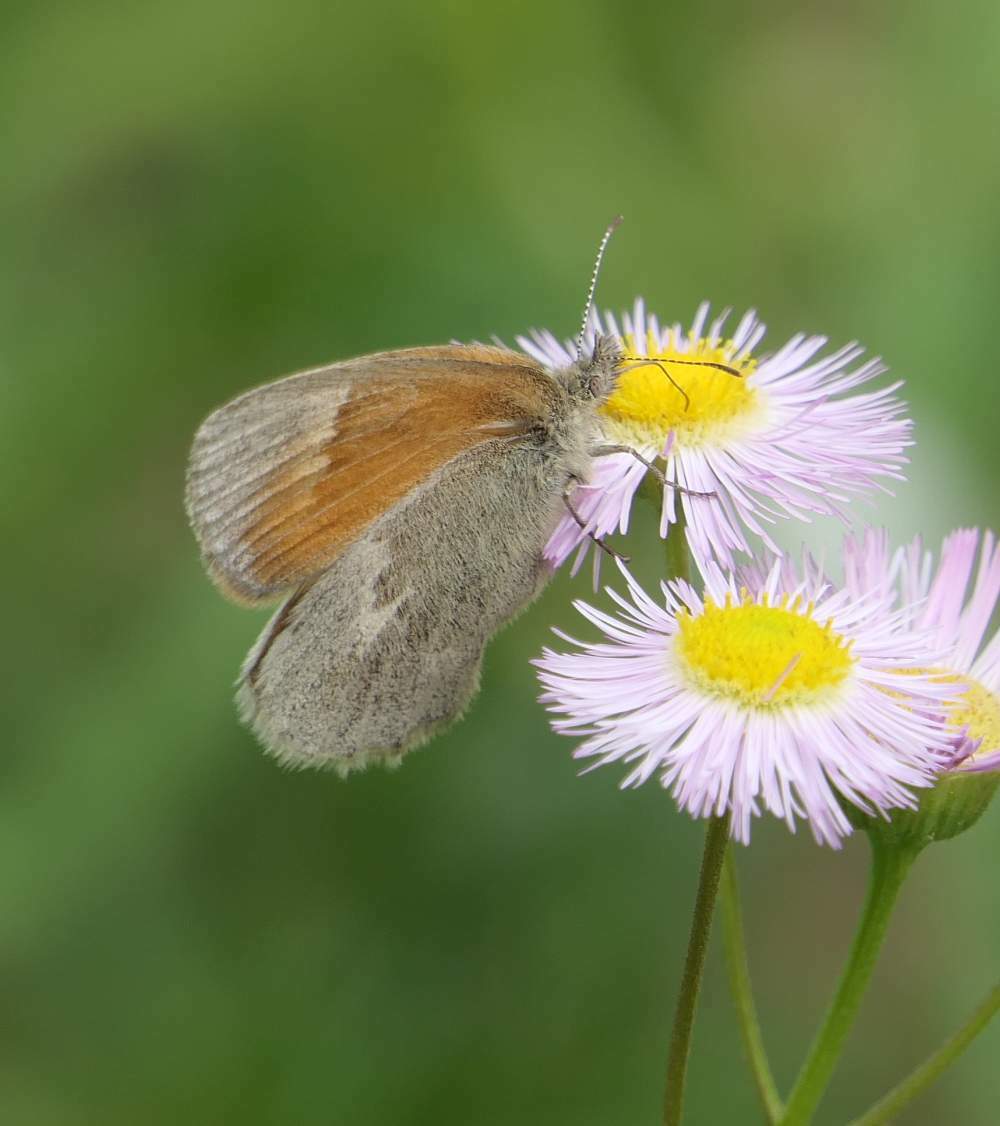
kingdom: Animalia
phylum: Arthropoda
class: Insecta
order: Lepidoptera
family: Nymphalidae
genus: Coenonympha
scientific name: Coenonympha california
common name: Common ringlet
